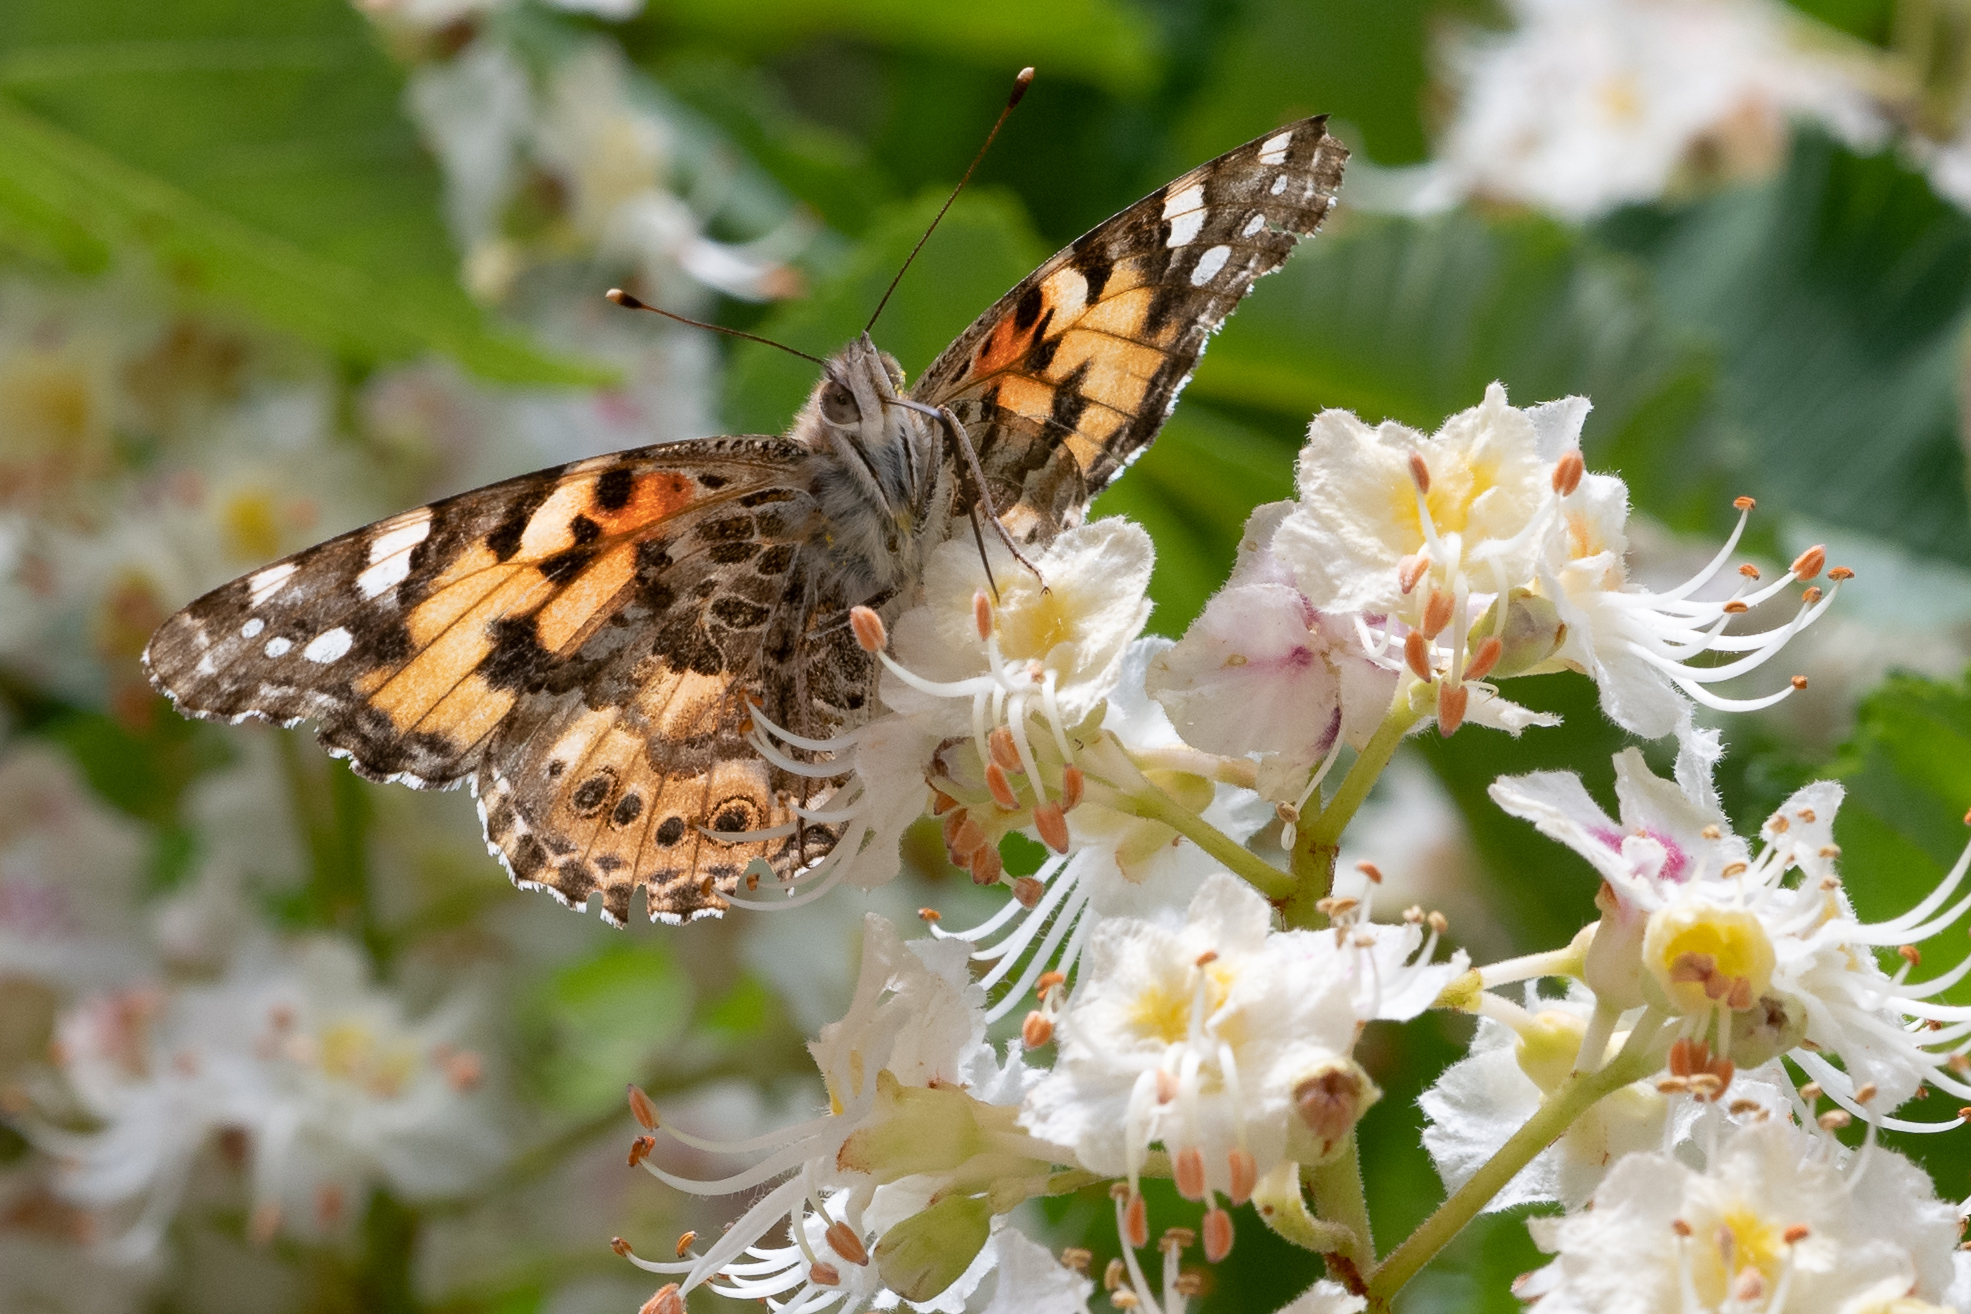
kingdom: Animalia
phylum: Arthropoda
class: Insecta
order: Lepidoptera
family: Nymphalidae
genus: Vanessa
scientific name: Vanessa cardui
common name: Painted lady
